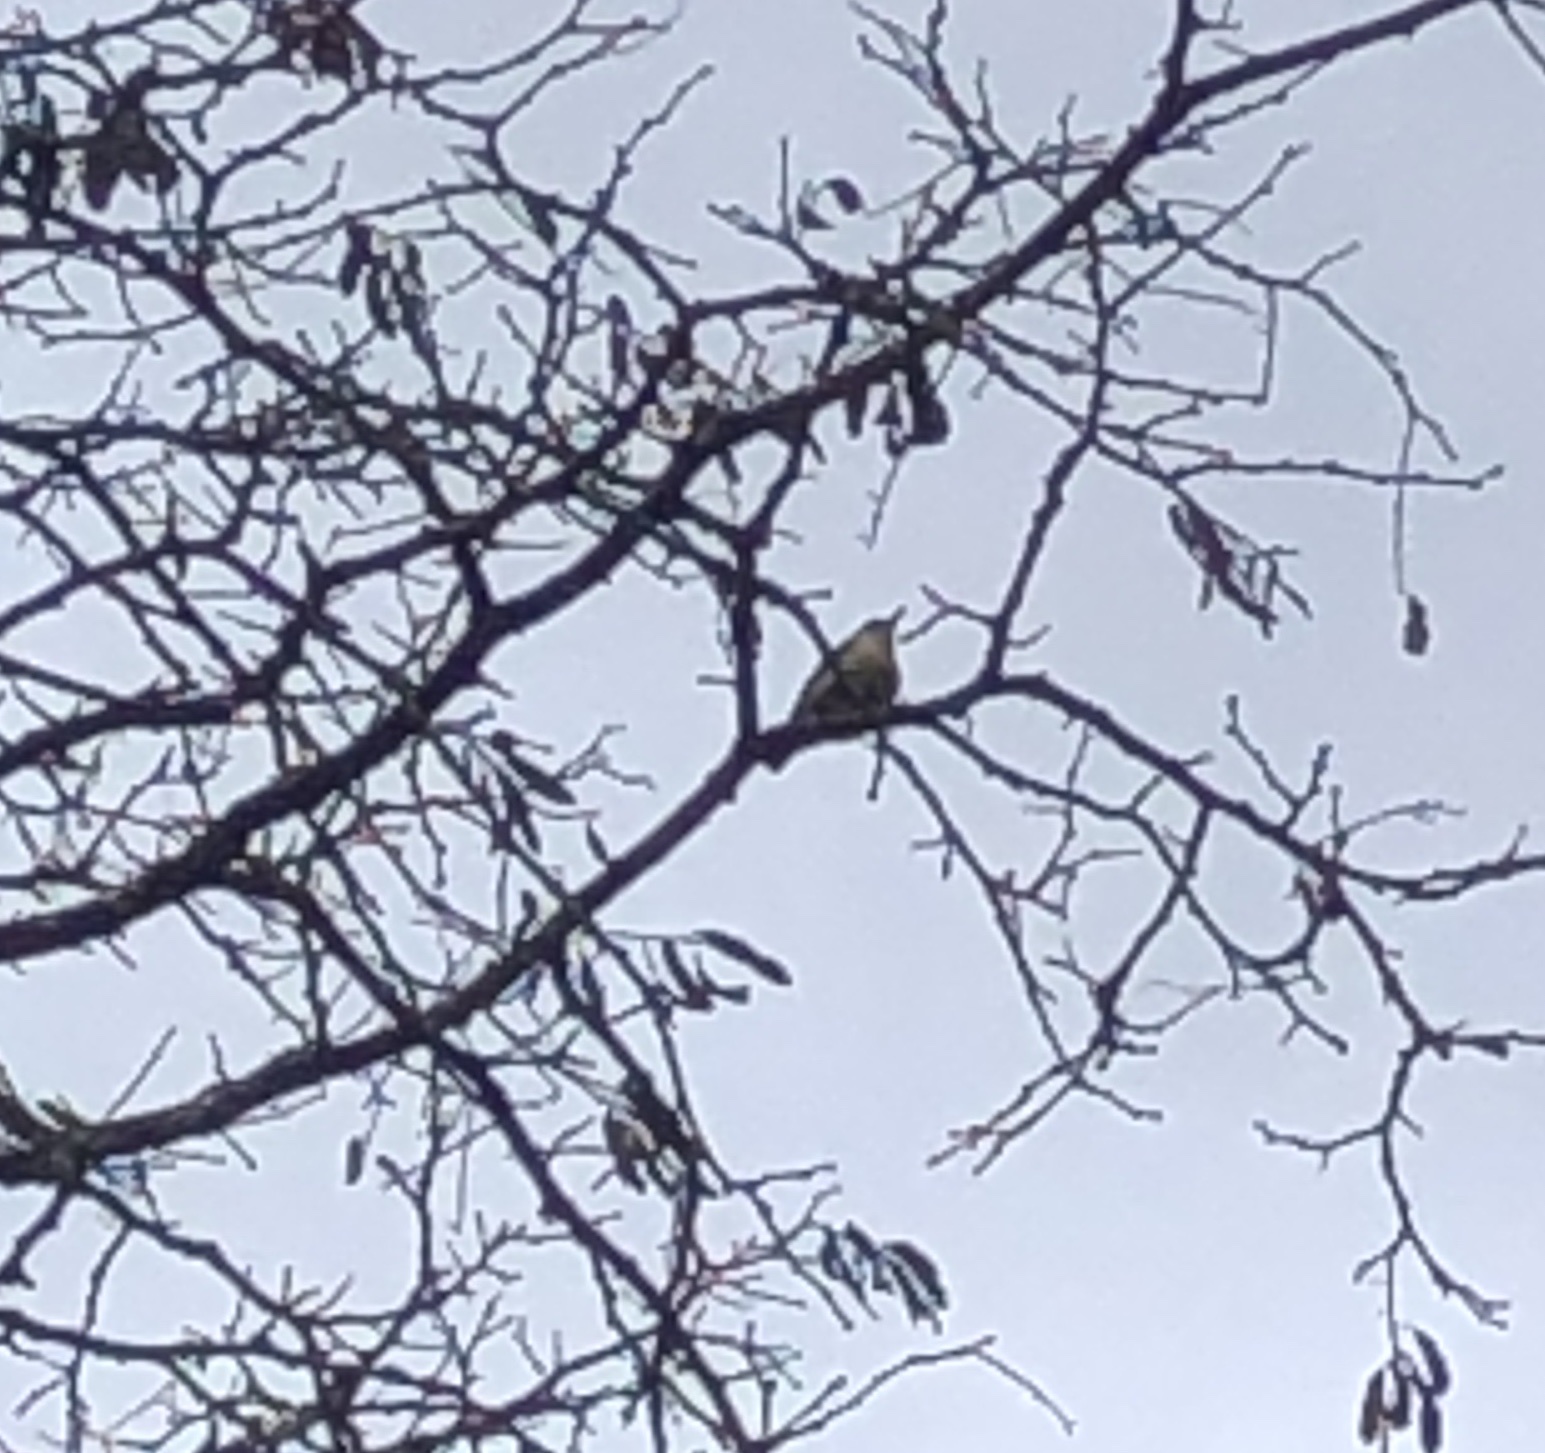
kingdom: Animalia
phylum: Chordata
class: Aves
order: Passeriformes
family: Sittidae
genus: Sitta
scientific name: Sitta europaea
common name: Eurasian nuthatch
